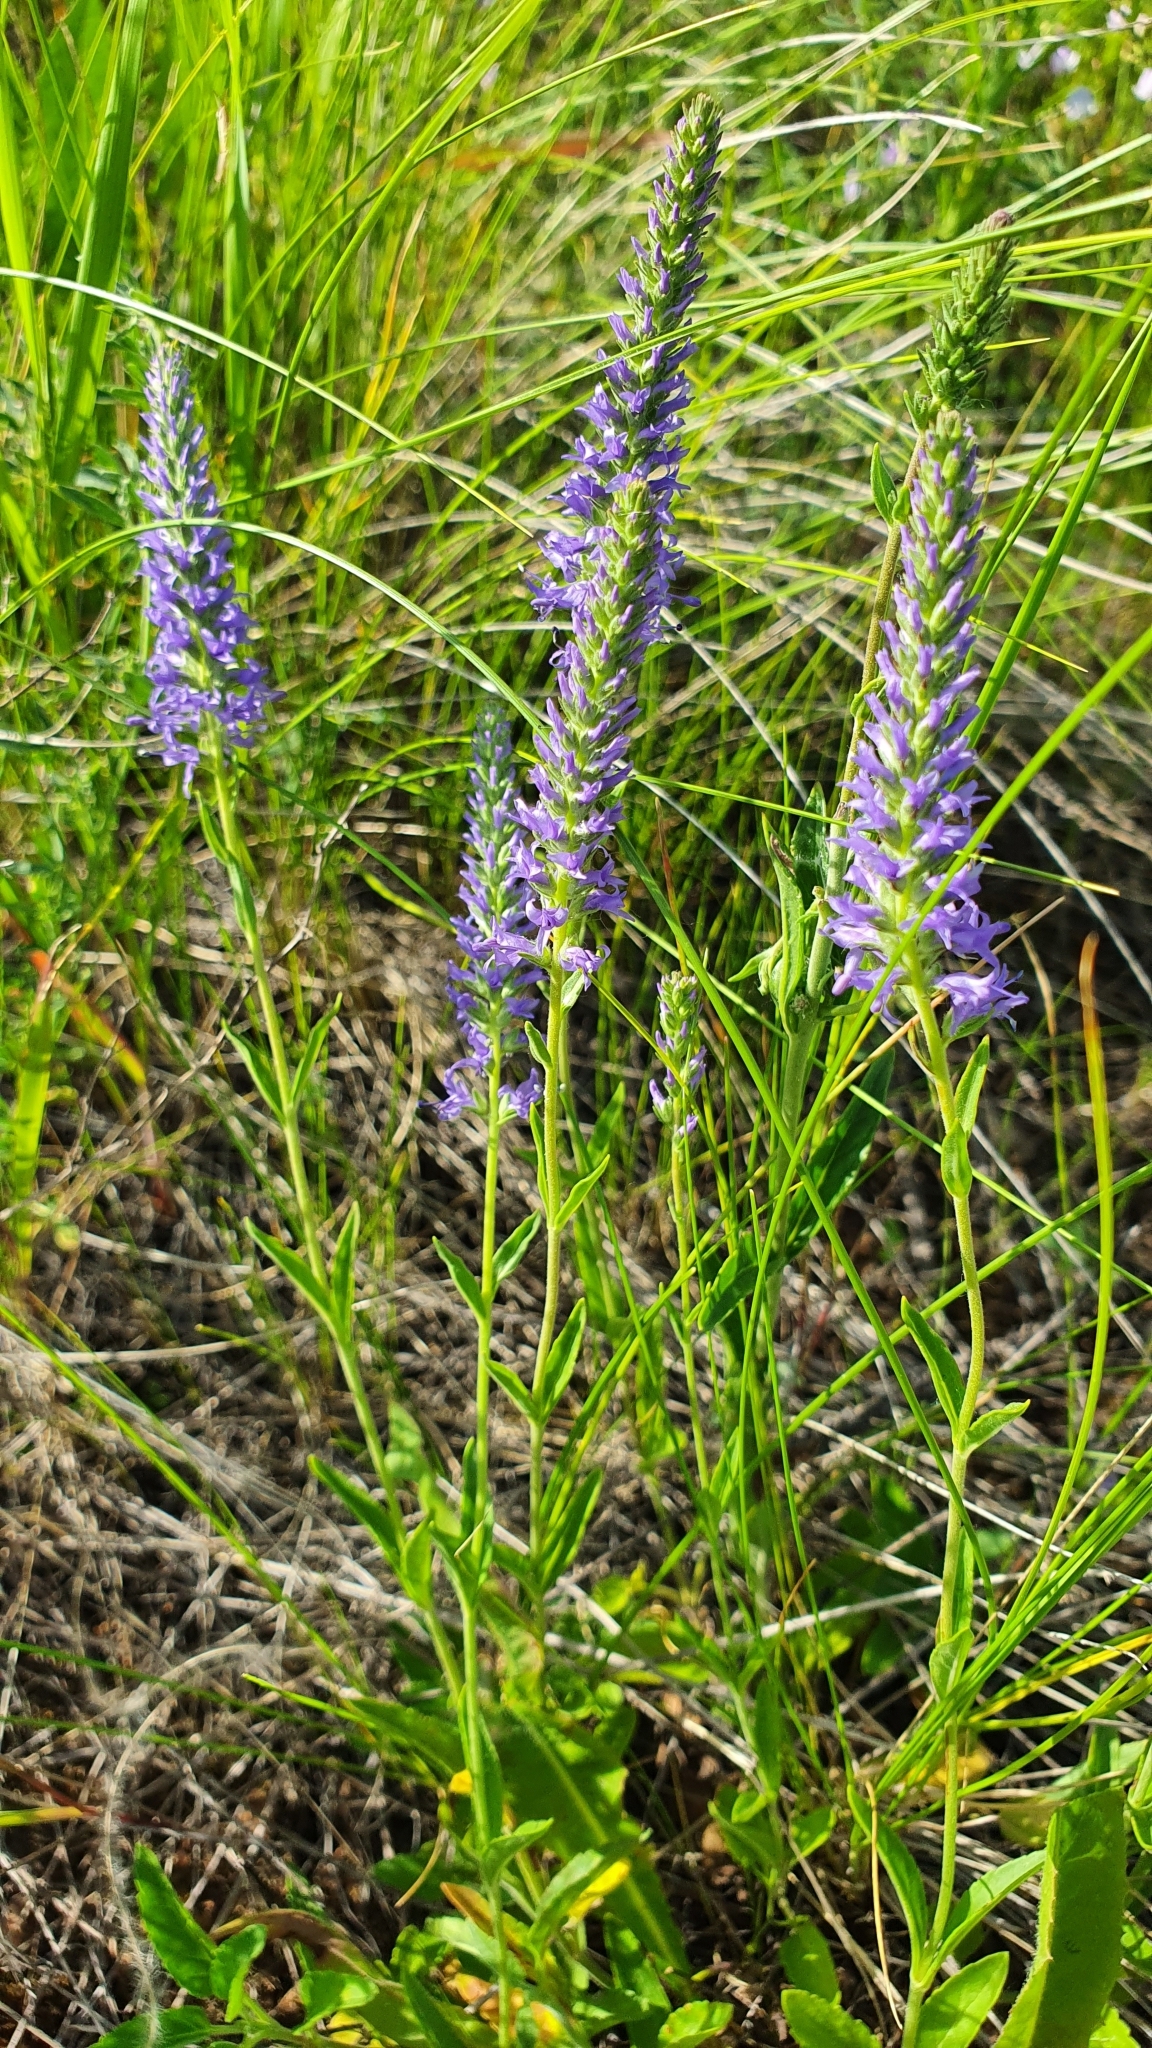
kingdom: Plantae
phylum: Tracheophyta
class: Magnoliopsida
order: Lamiales
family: Plantaginaceae
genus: Veronica
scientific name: Veronica spicata
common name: Spiked speedwell
